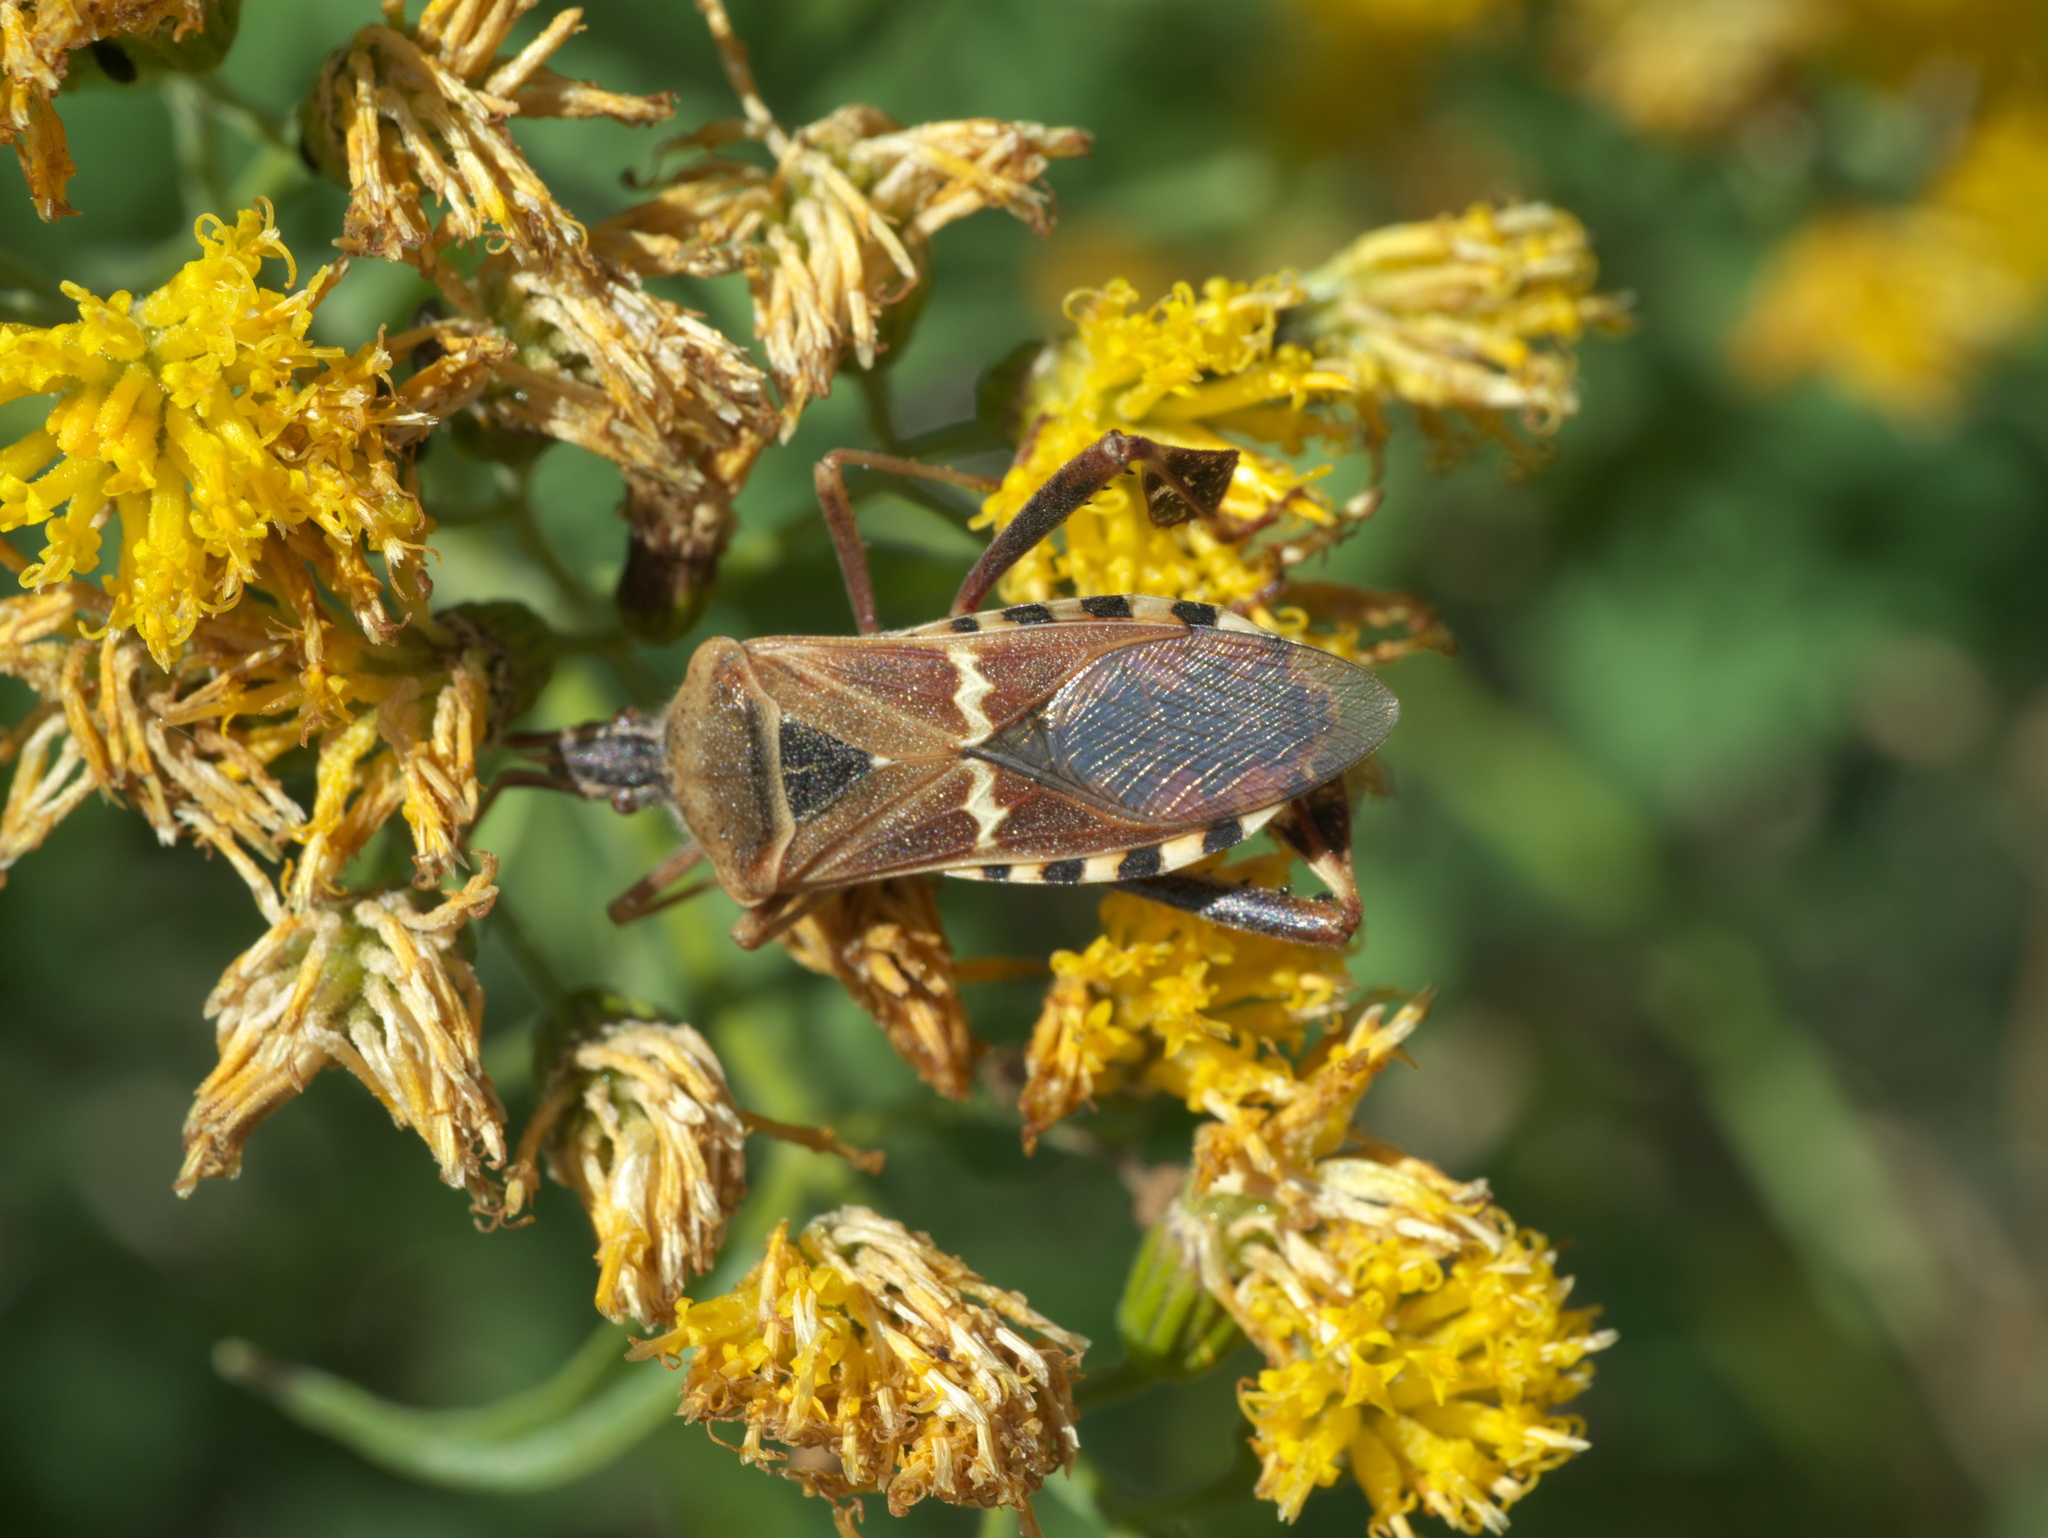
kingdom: Animalia
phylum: Arthropoda
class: Insecta
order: Hemiptera
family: Coreidae
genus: Leptoglossus
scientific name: Leptoglossus clypealis
